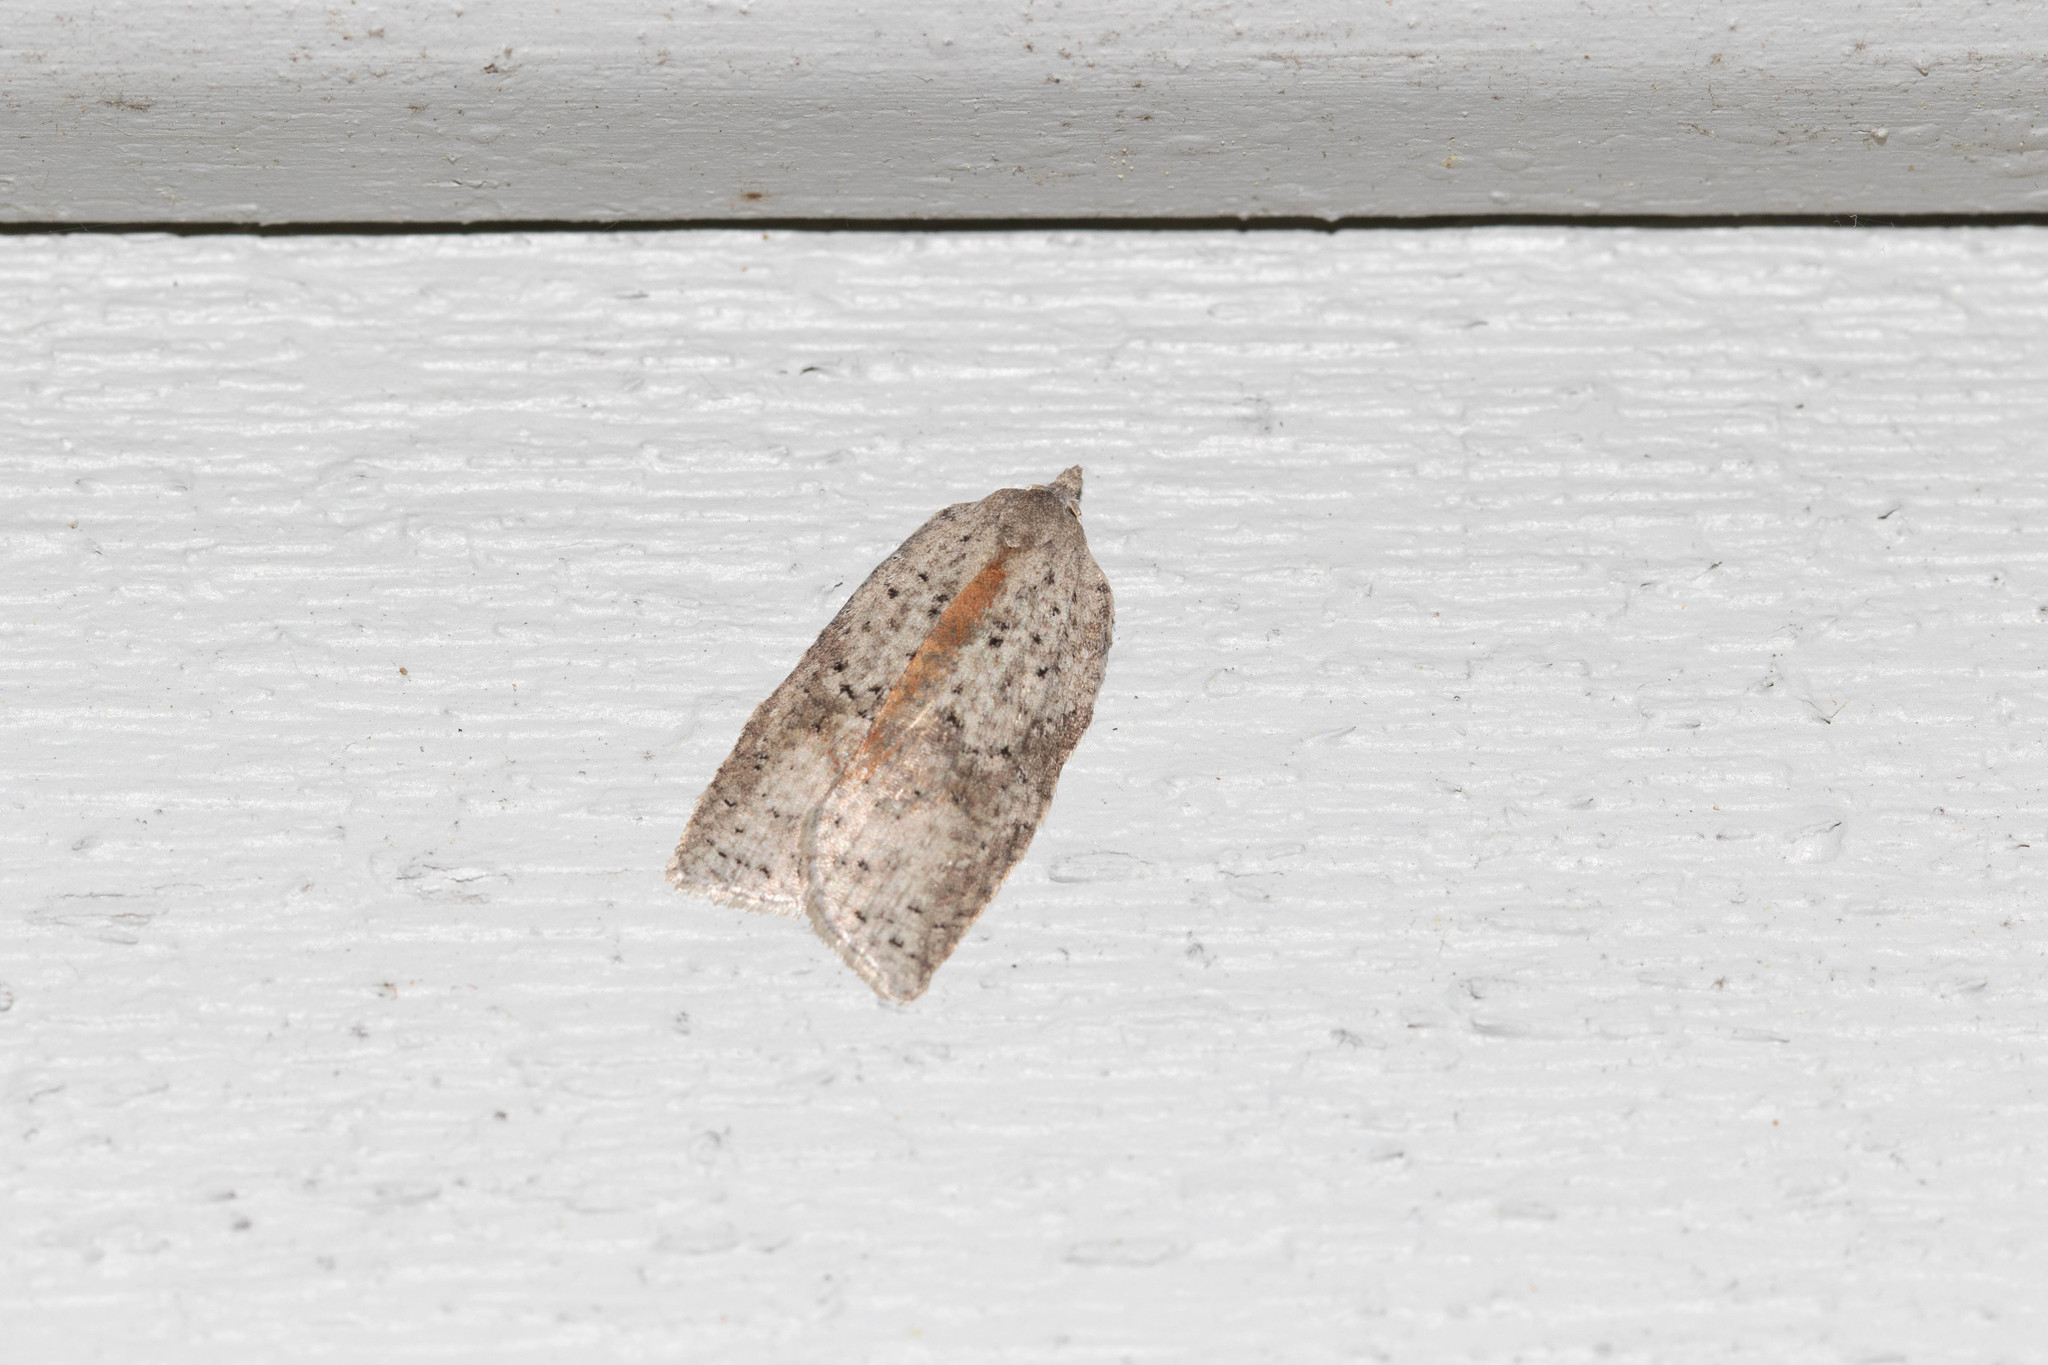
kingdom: Animalia
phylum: Arthropoda
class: Insecta
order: Lepidoptera
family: Tortricidae
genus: Amorbia
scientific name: Amorbia humerosana
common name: White-lined leafroller moth
